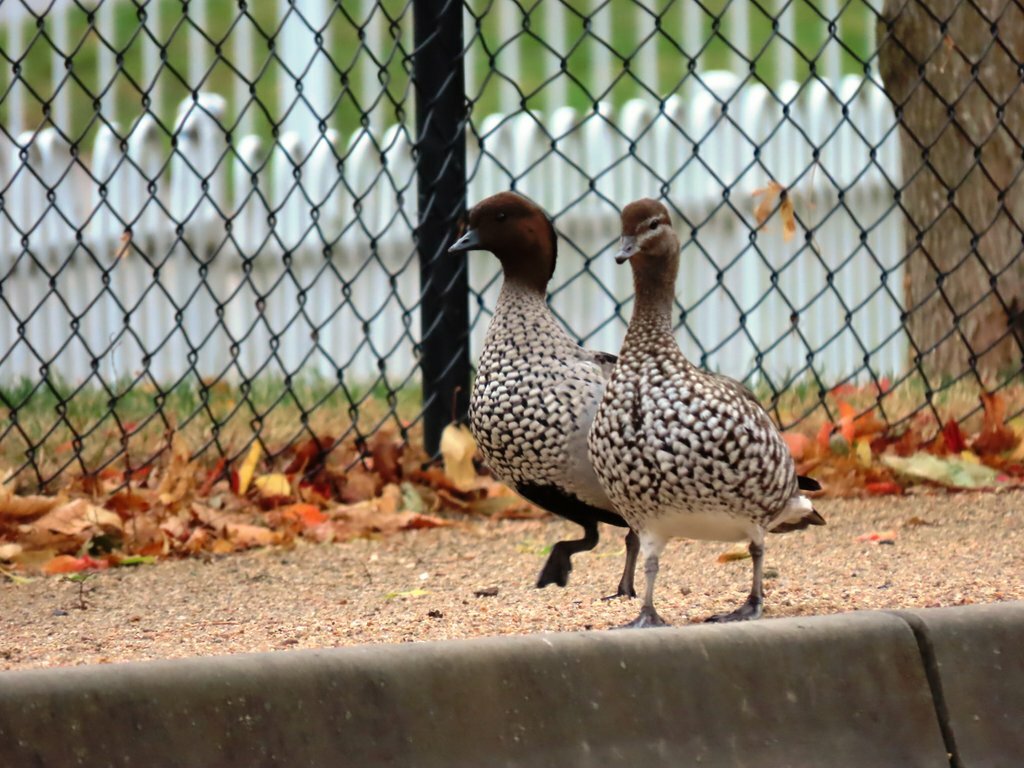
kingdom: Animalia
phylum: Chordata
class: Aves
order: Anseriformes
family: Anatidae
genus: Chenonetta
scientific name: Chenonetta jubata
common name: Maned duck
